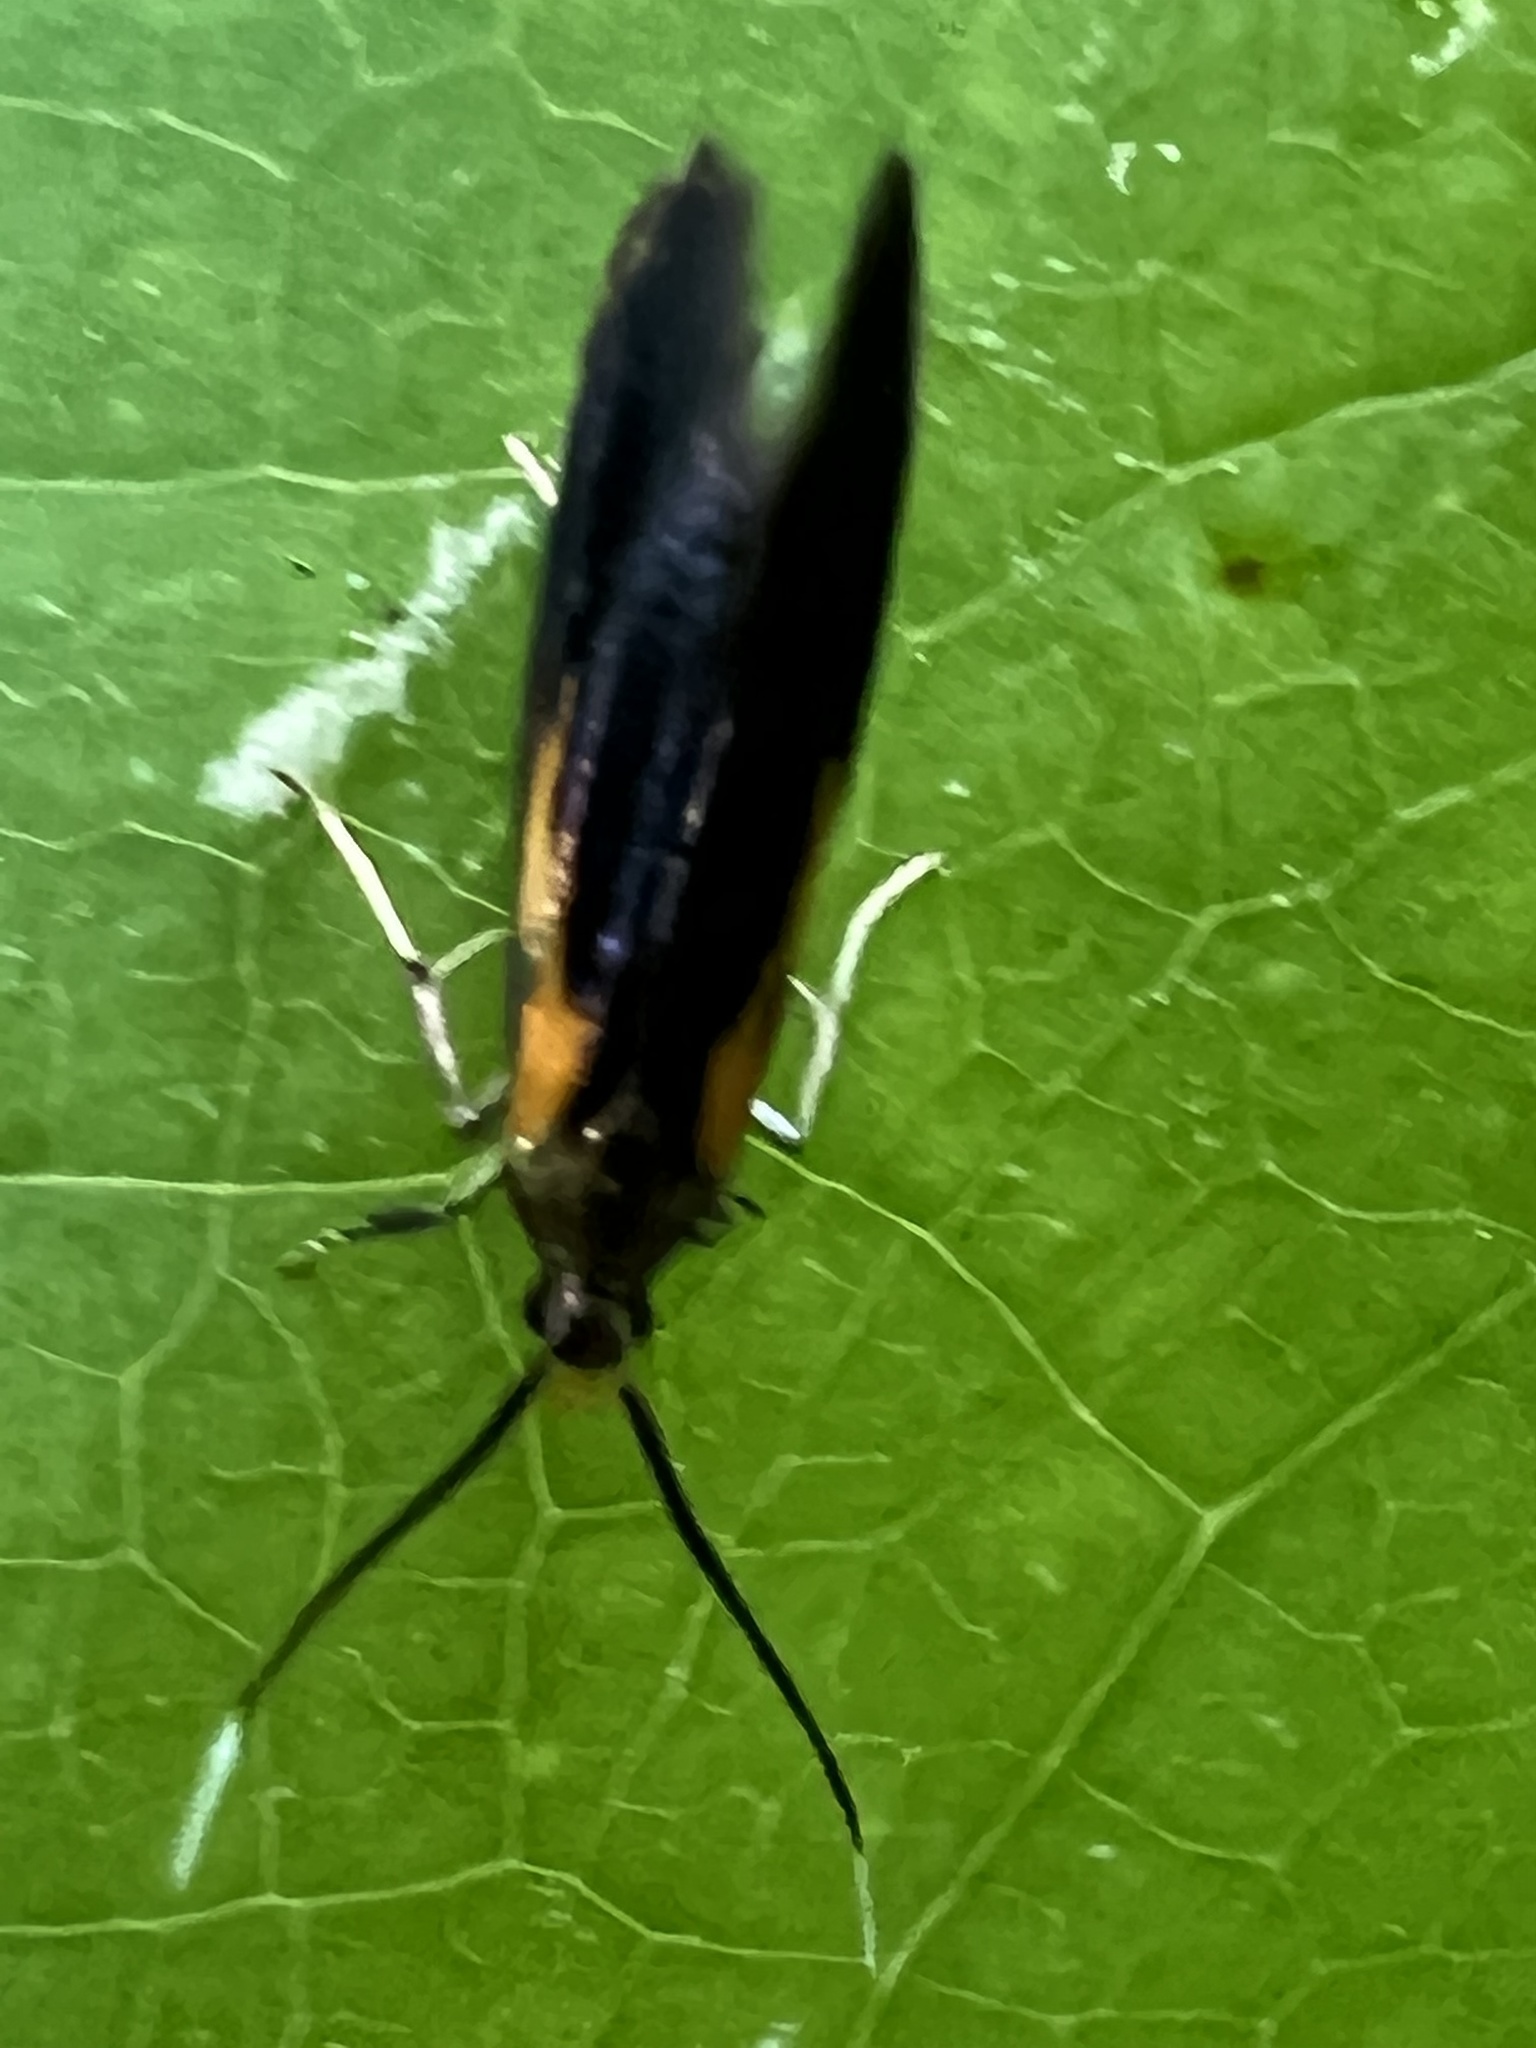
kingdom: Animalia
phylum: Arthropoda
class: Insecta
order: Lepidoptera
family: Oecophoridae
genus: Mathildana
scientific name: Mathildana newmanella
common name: Newman's mathildana moth
